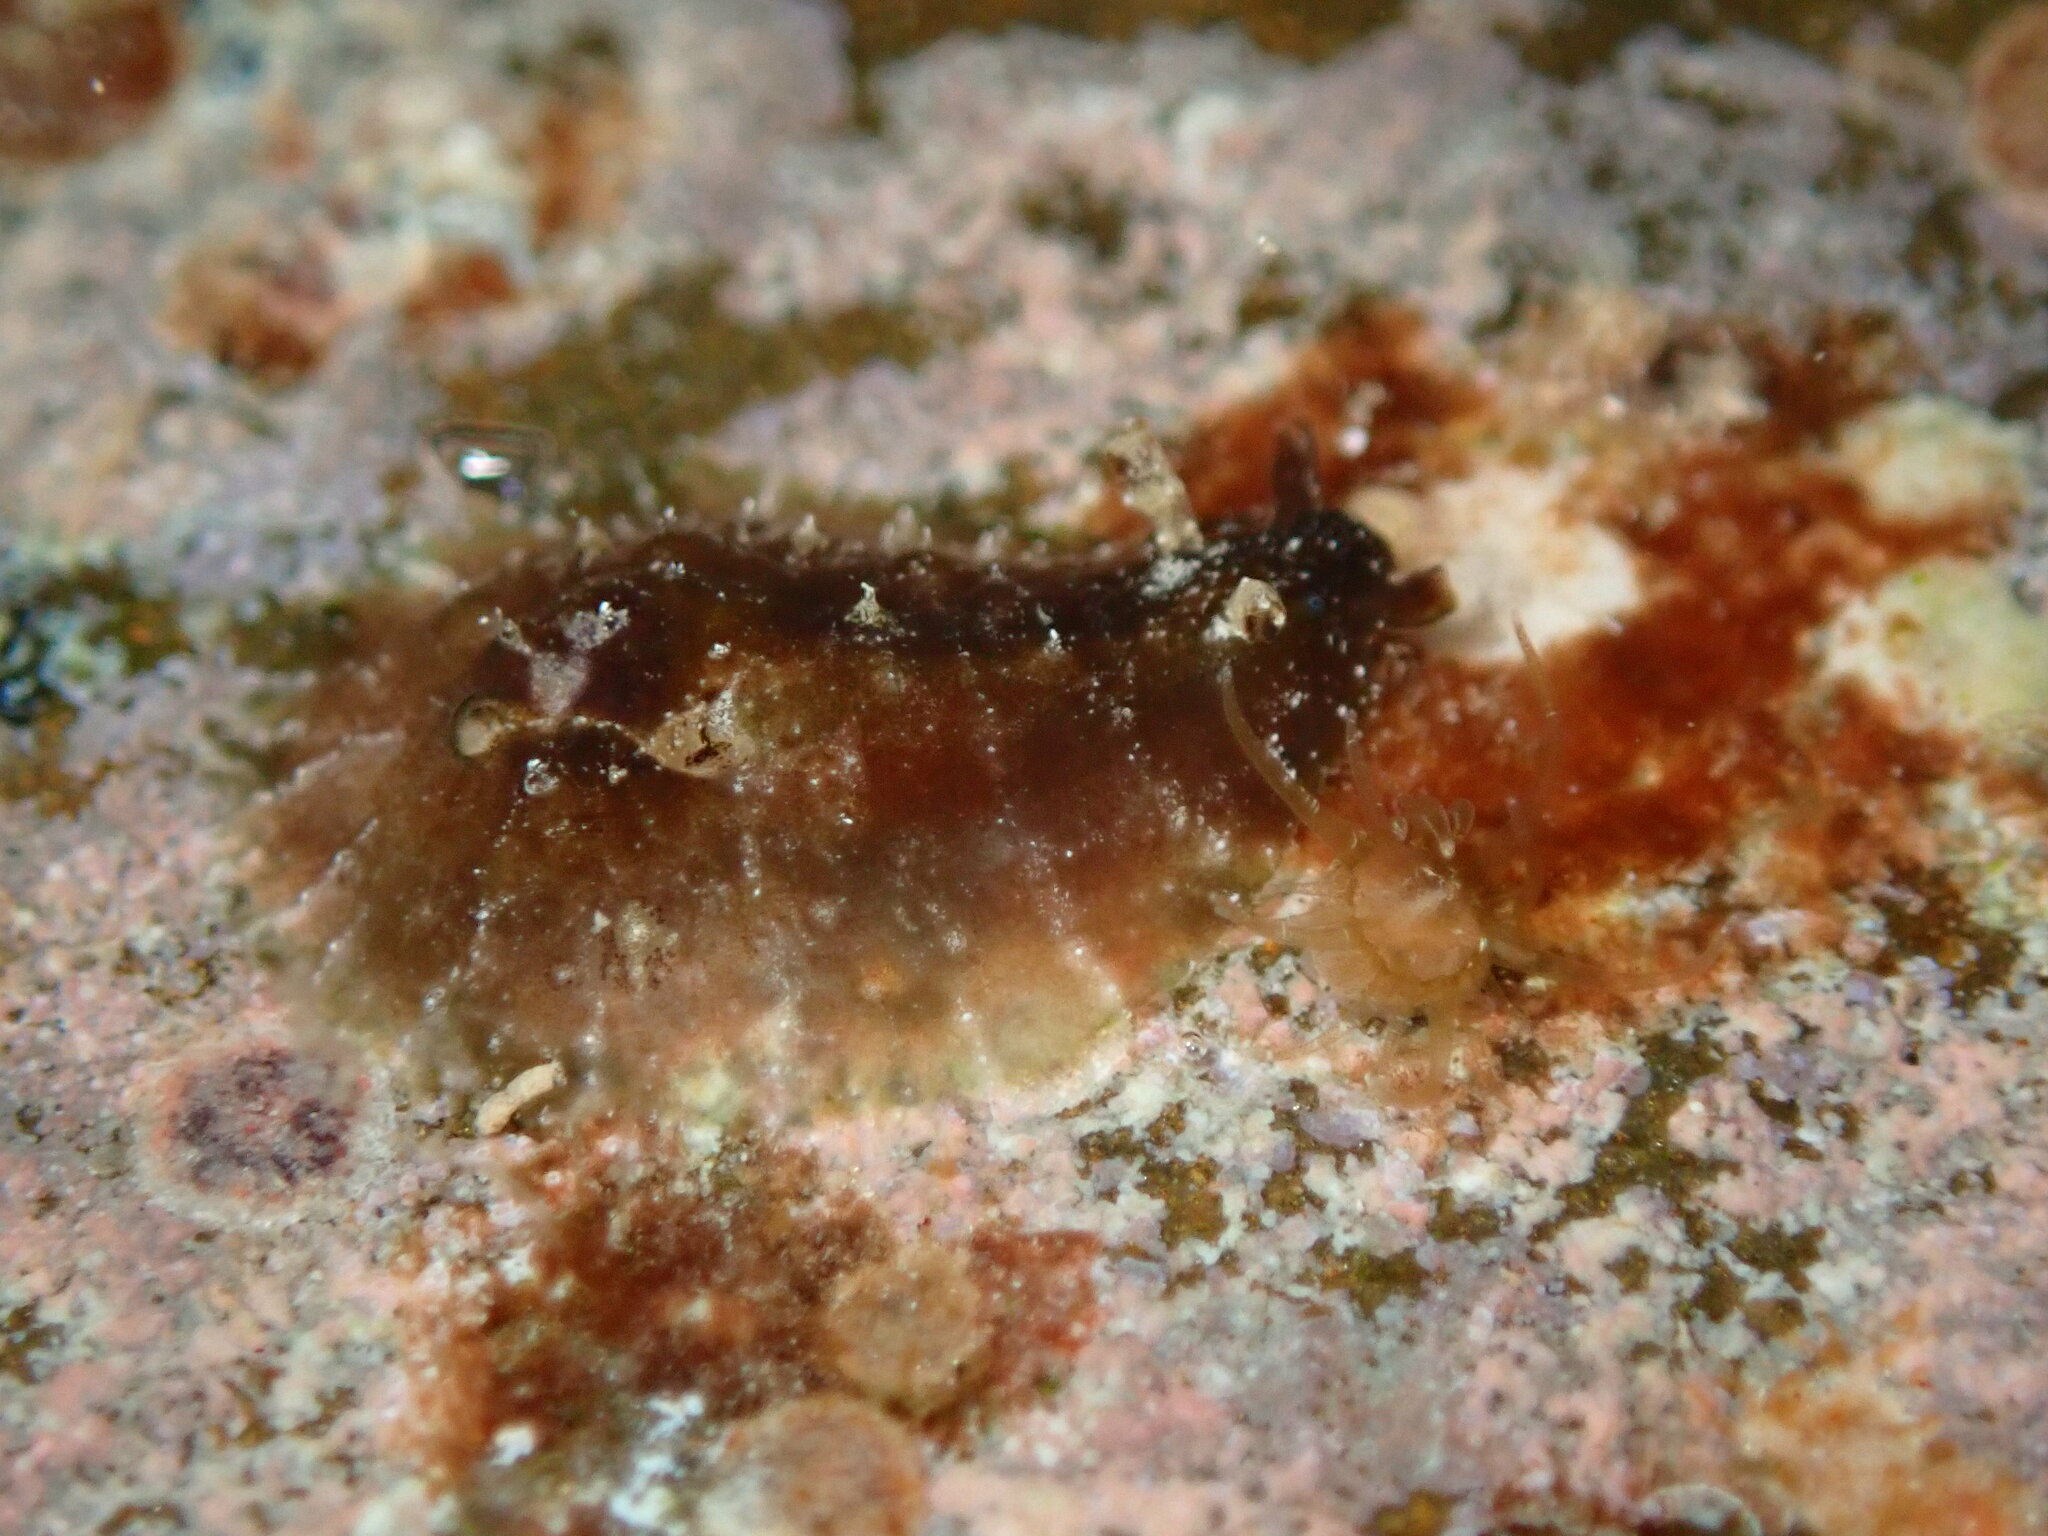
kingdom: Animalia
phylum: Mollusca
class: Gastropoda
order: Aplysiida
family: Aplysiidae
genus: Dolabrifera
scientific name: Dolabrifera dolabrifera
